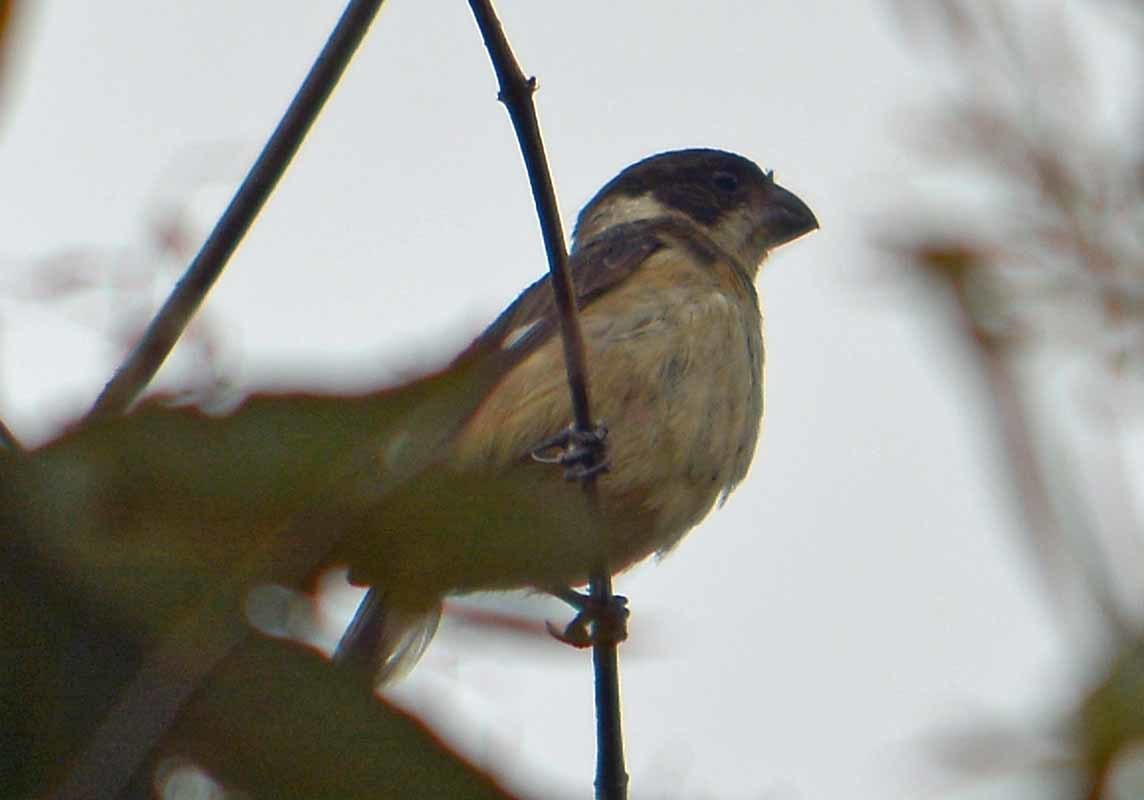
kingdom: Animalia
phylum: Chordata
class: Aves
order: Passeriformes
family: Thraupidae
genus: Sporophila
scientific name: Sporophila torqueola
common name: White-collared seedeater
